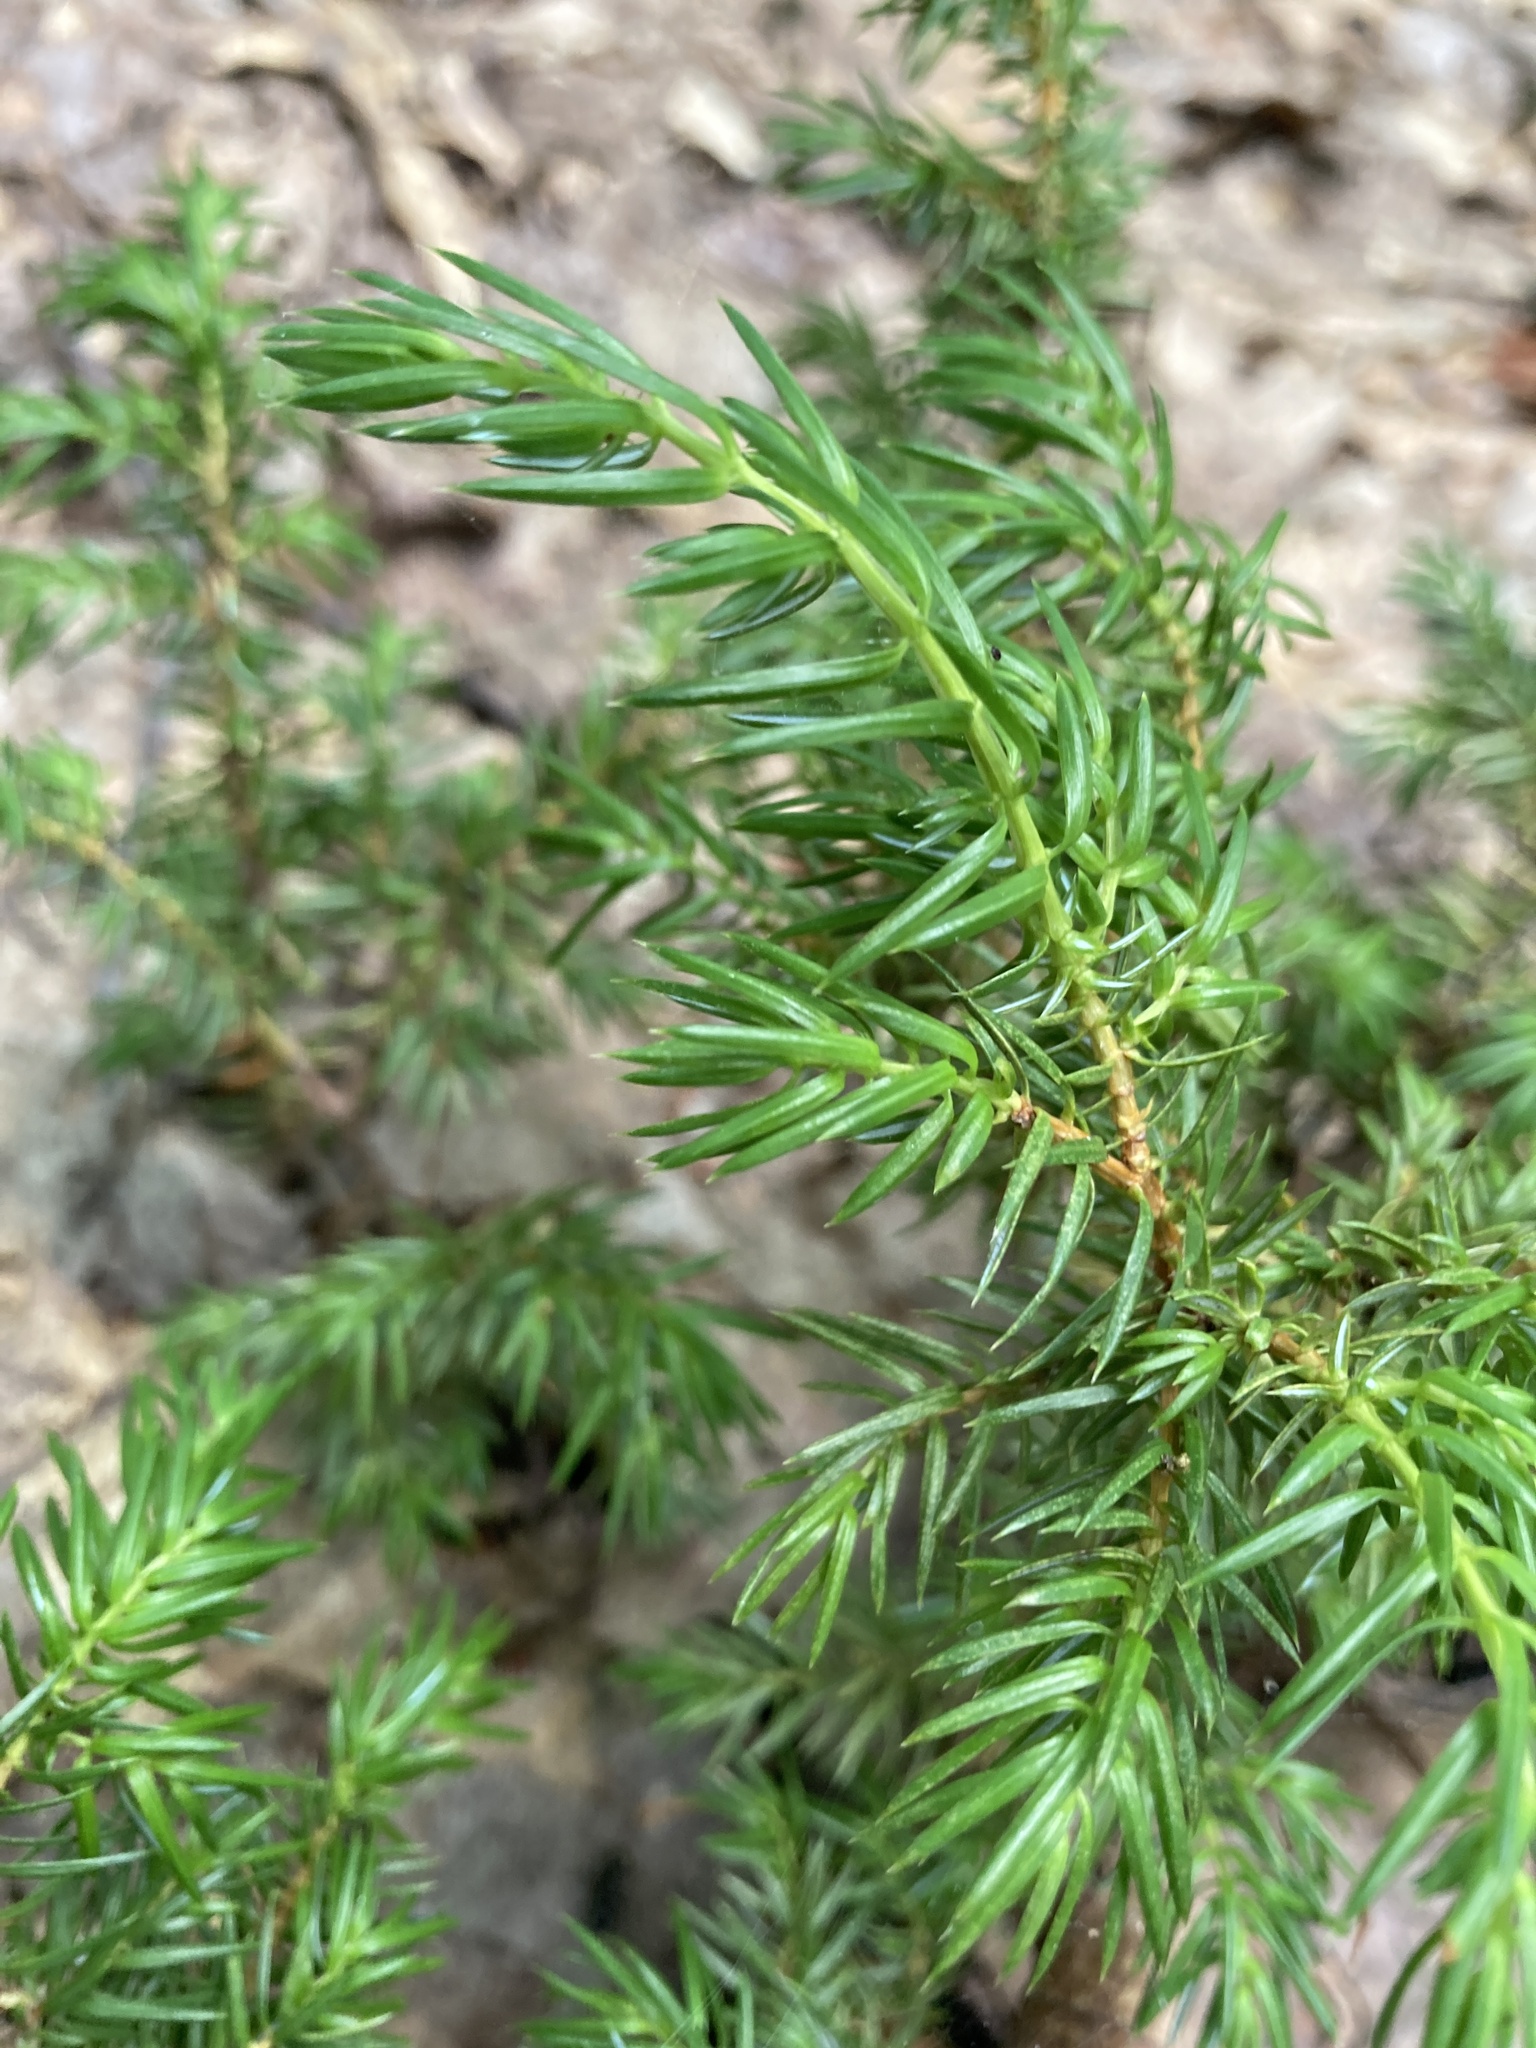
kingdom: Plantae
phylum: Tracheophyta
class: Pinopsida
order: Pinales
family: Cupressaceae
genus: Juniperus
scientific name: Juniperus communis
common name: Common juniper
